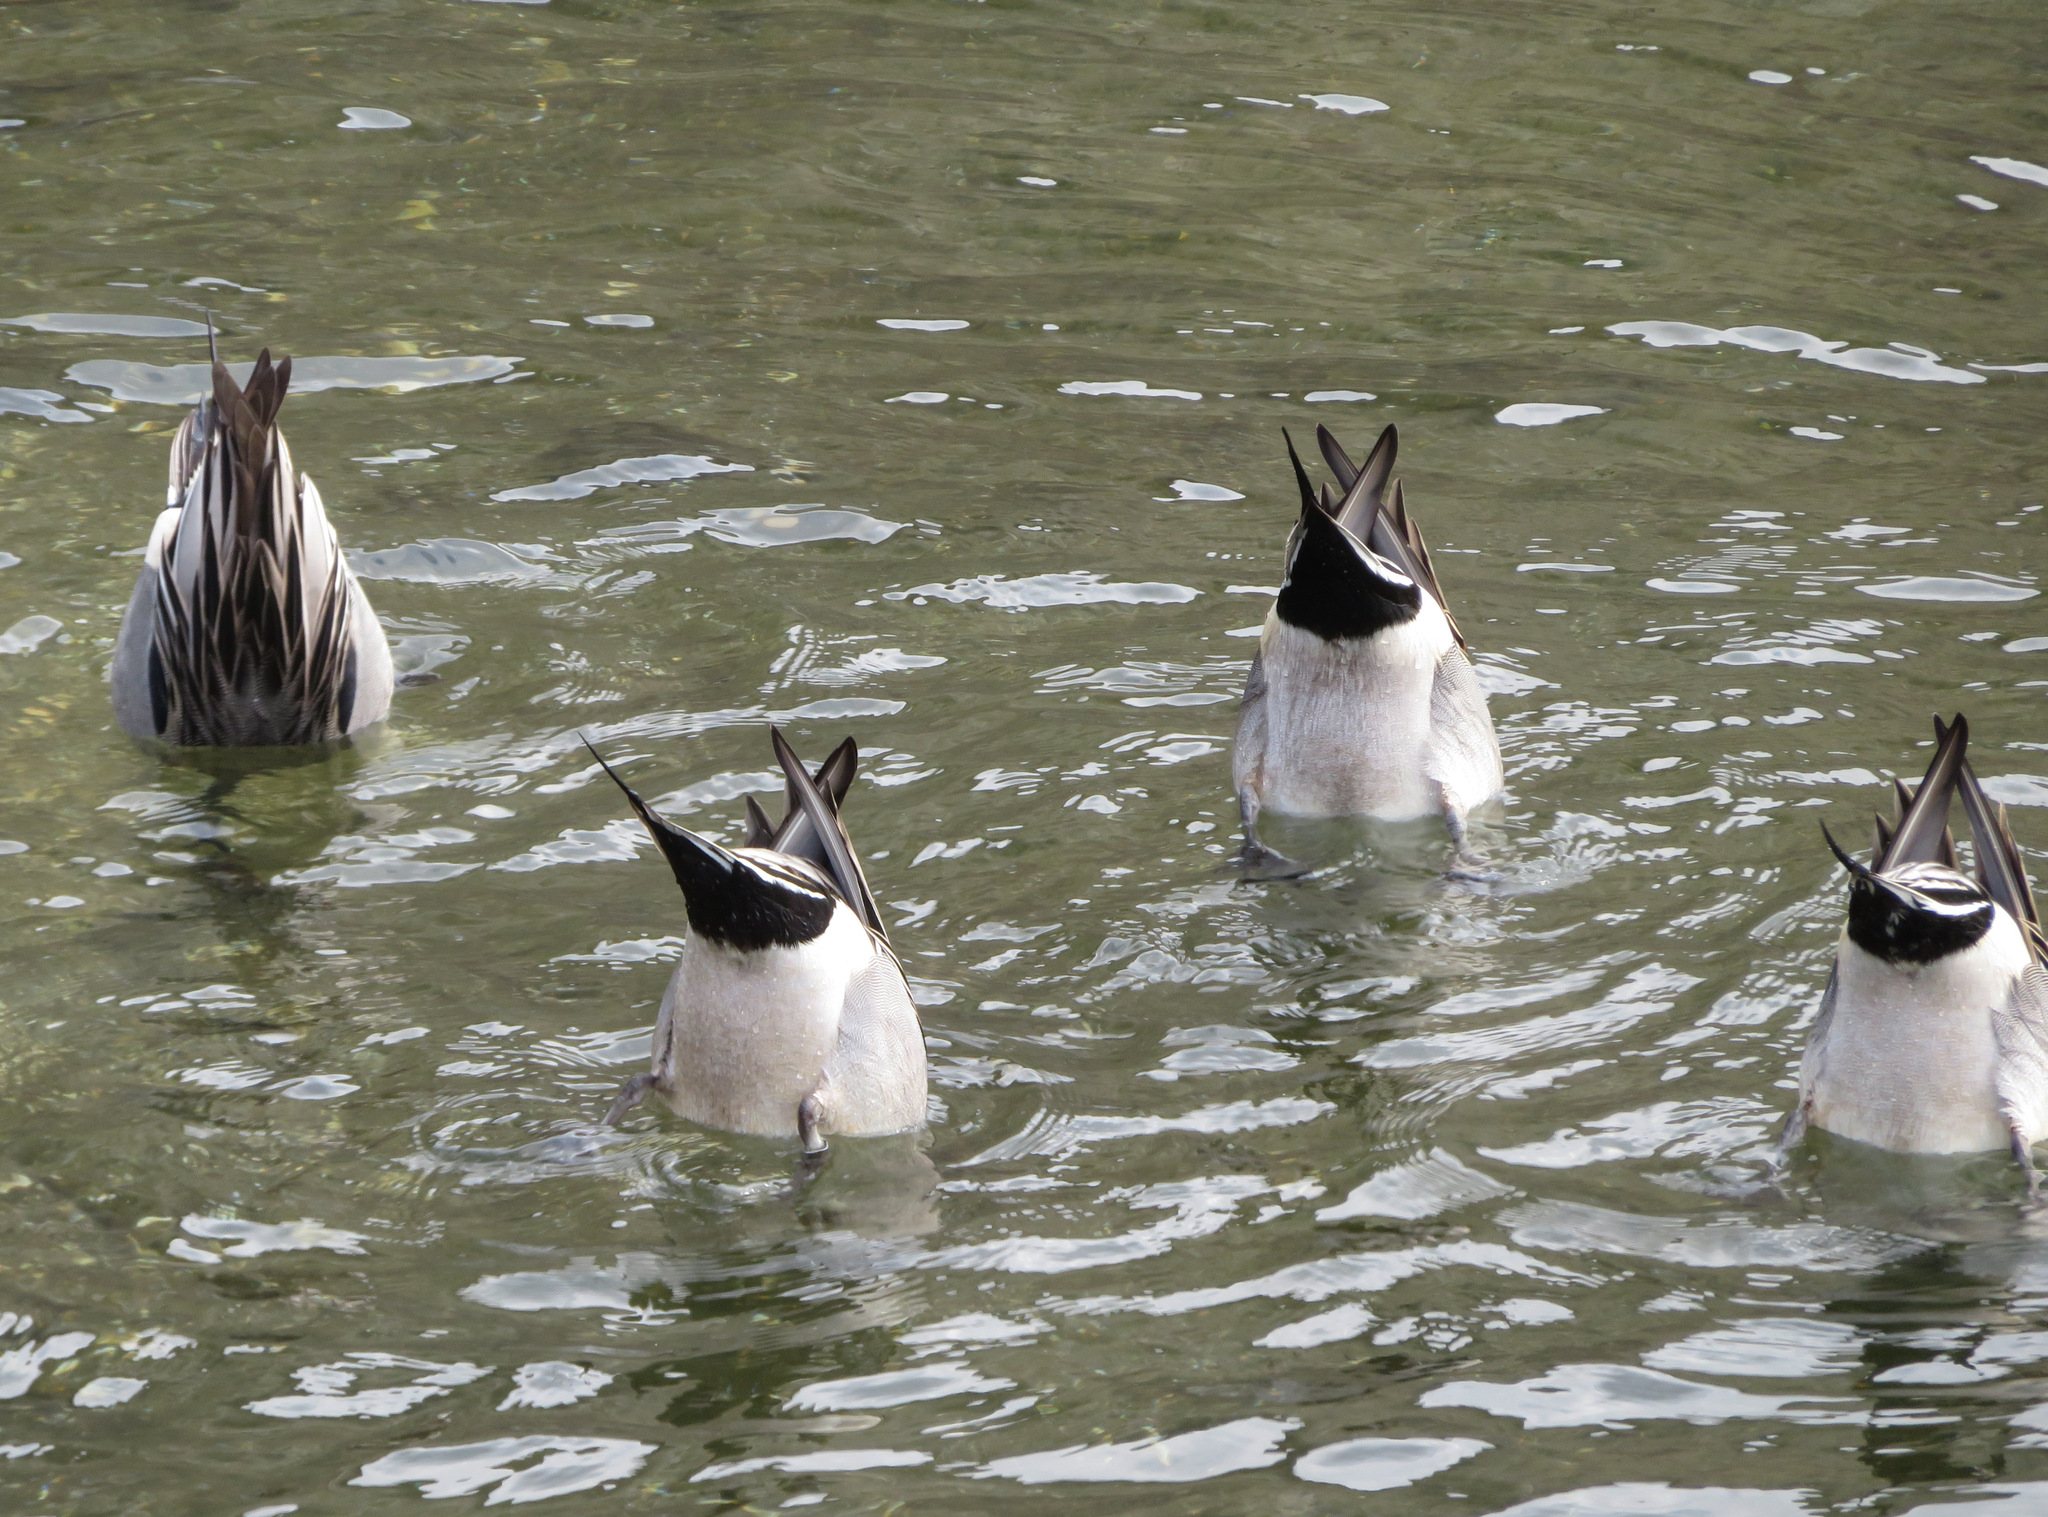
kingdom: Animalia
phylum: Chordata
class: Aves
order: Anseriformes
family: Anatidae
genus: Anas
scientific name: Anas acuta
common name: Northern pintail
